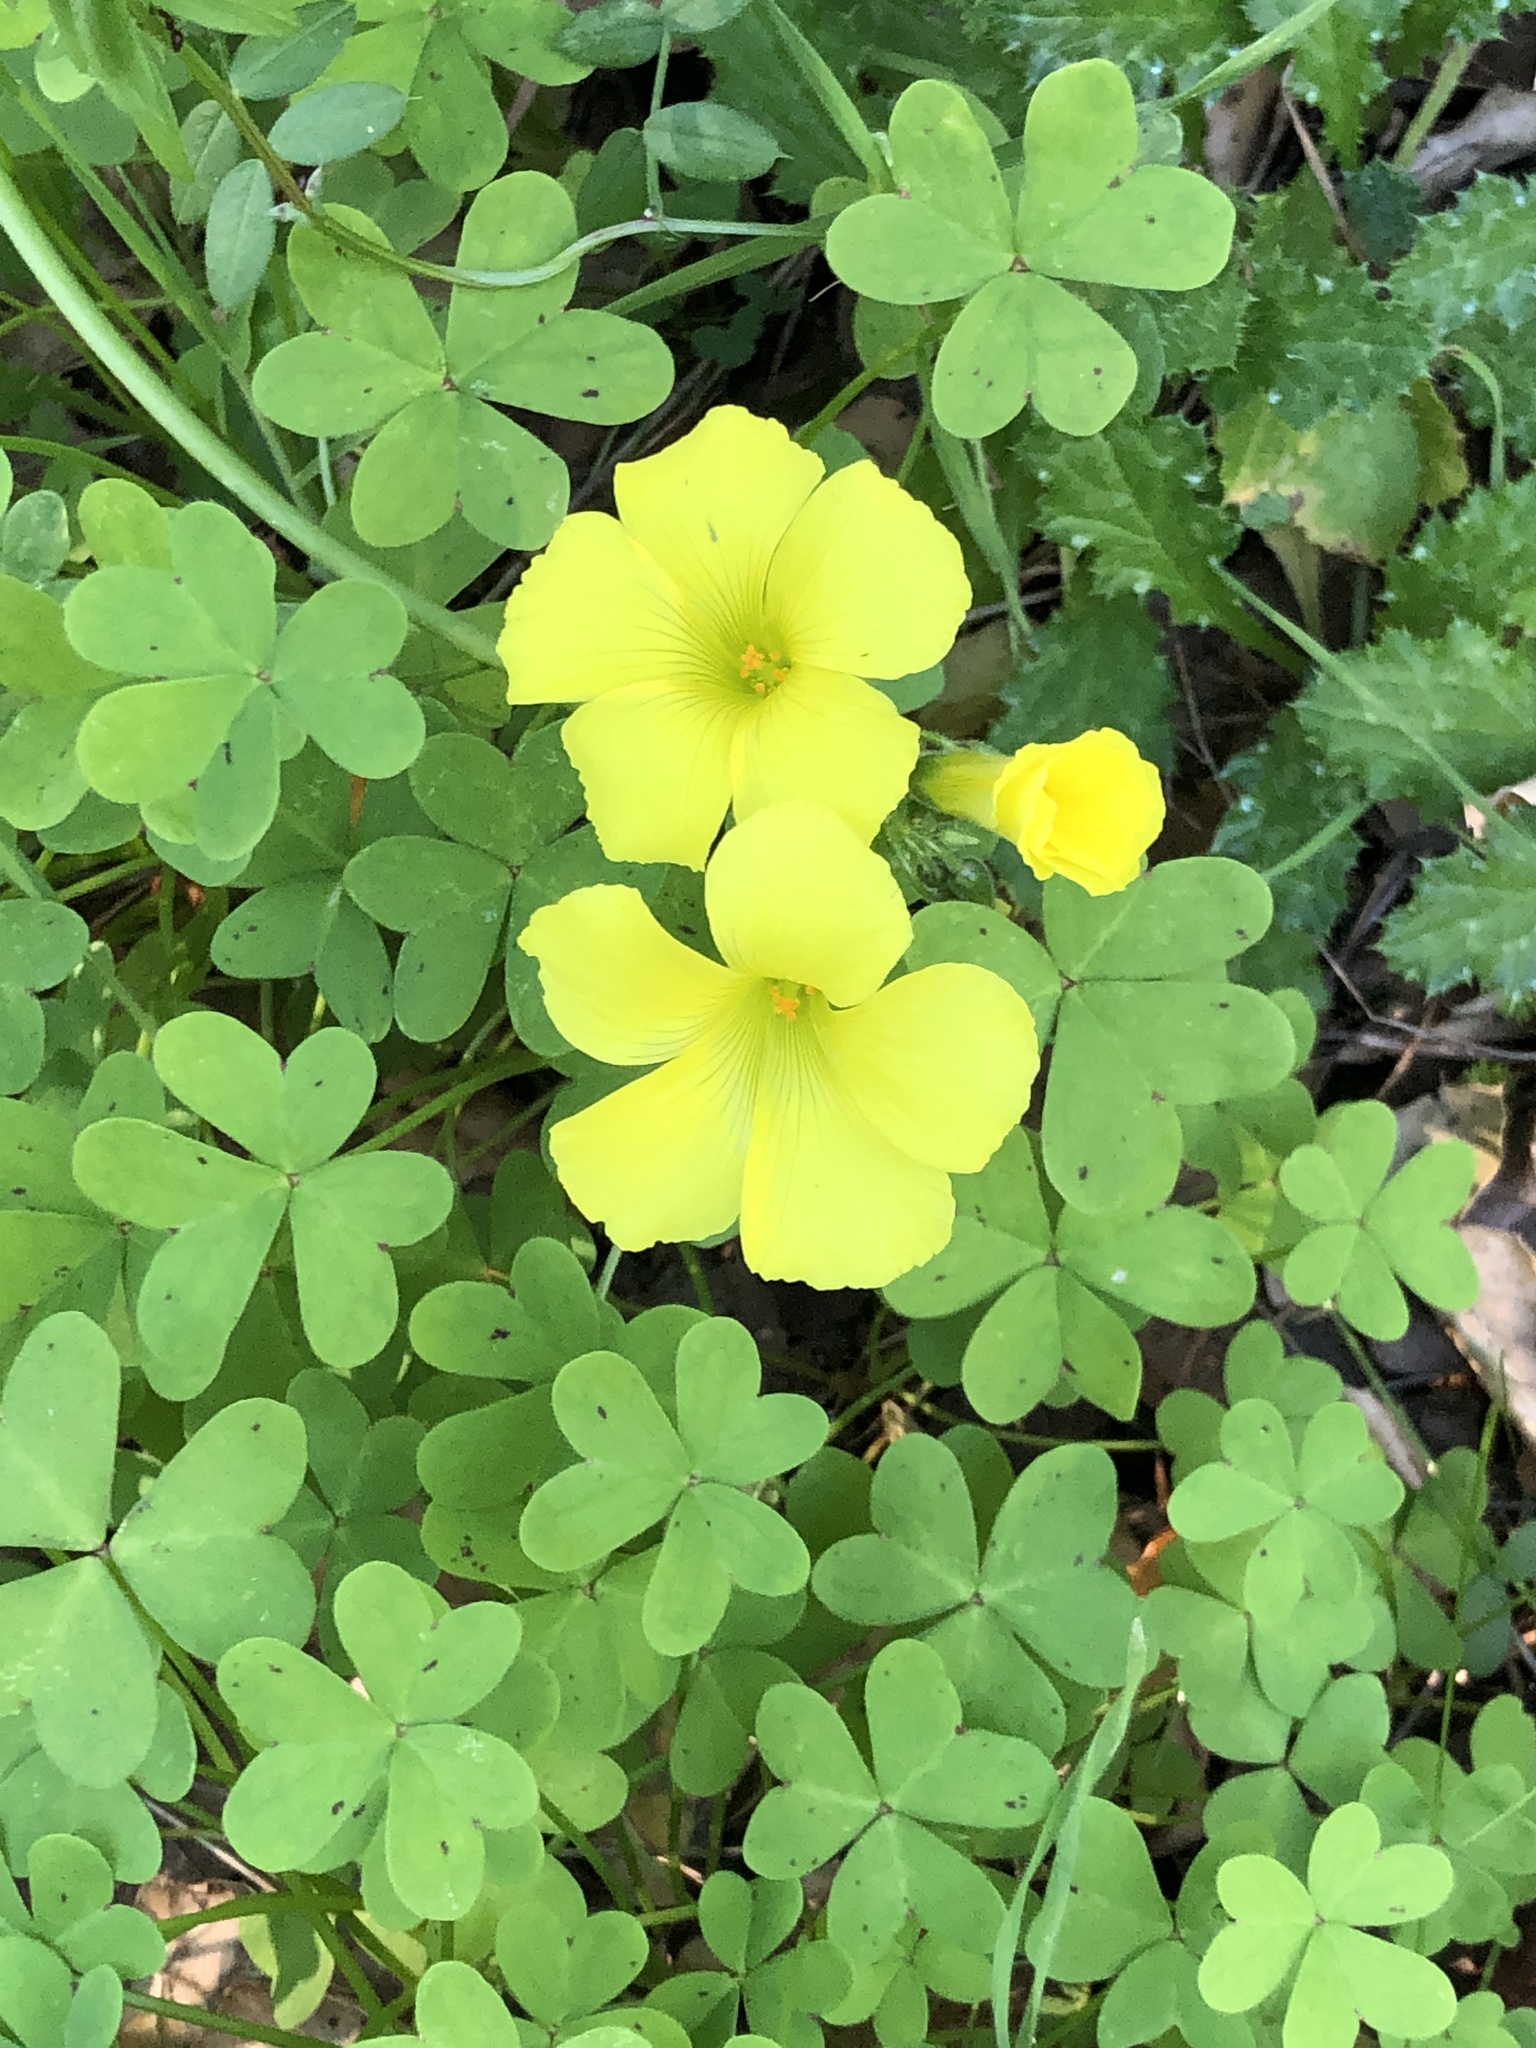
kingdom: Plantae
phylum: Tracheophyta
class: Magnoliopsida
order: Oxalidales
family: Oxalidaceae
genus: Oxalis
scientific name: Oxalis pes-caprae
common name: Bermuda-buttercup
